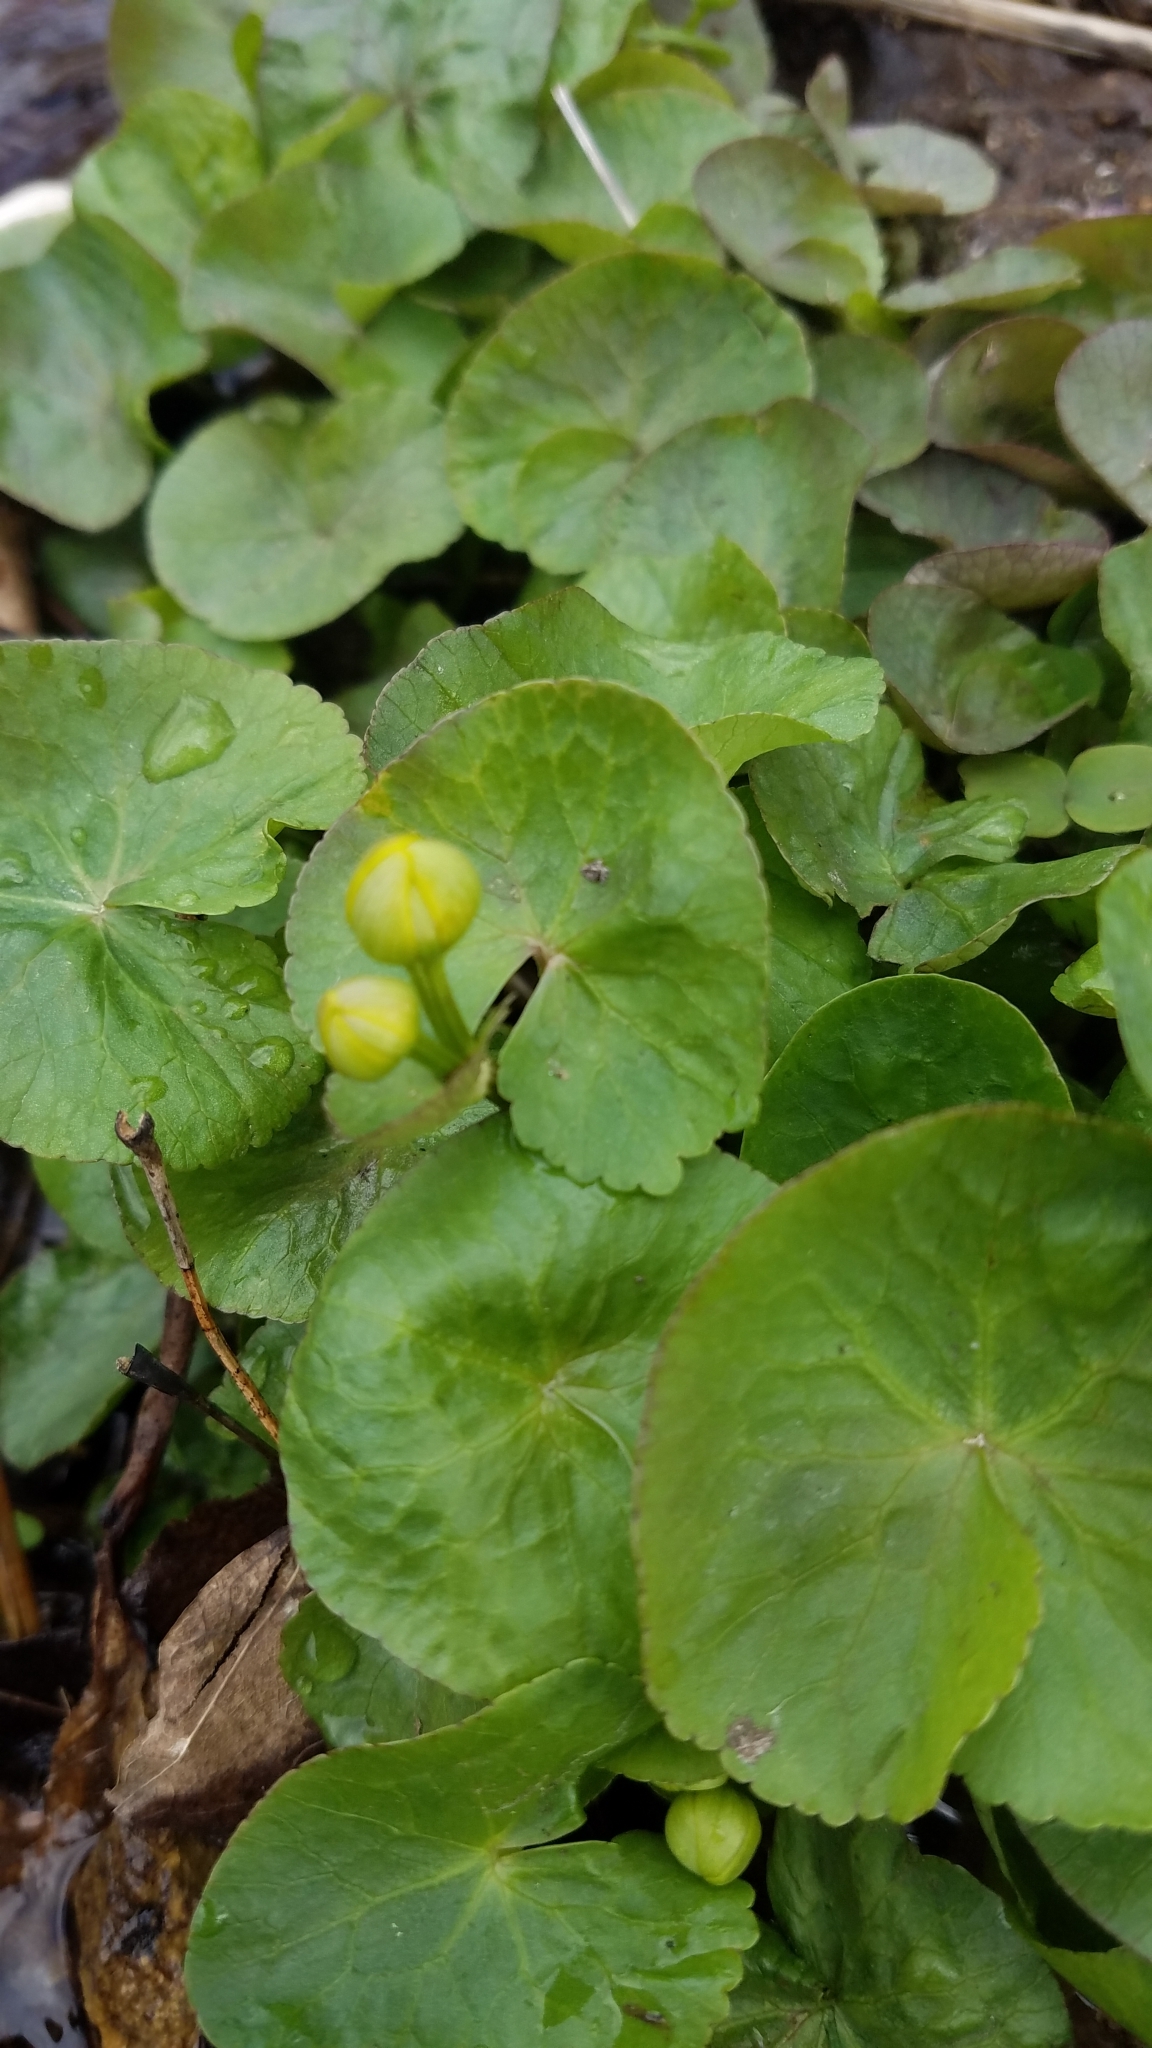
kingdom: Plantae
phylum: Tracheophyta
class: Magnoliopsida
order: Ranunculales
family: Ranunculaceae
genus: Caltha
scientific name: Caltha palustris
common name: Marsh marigold
